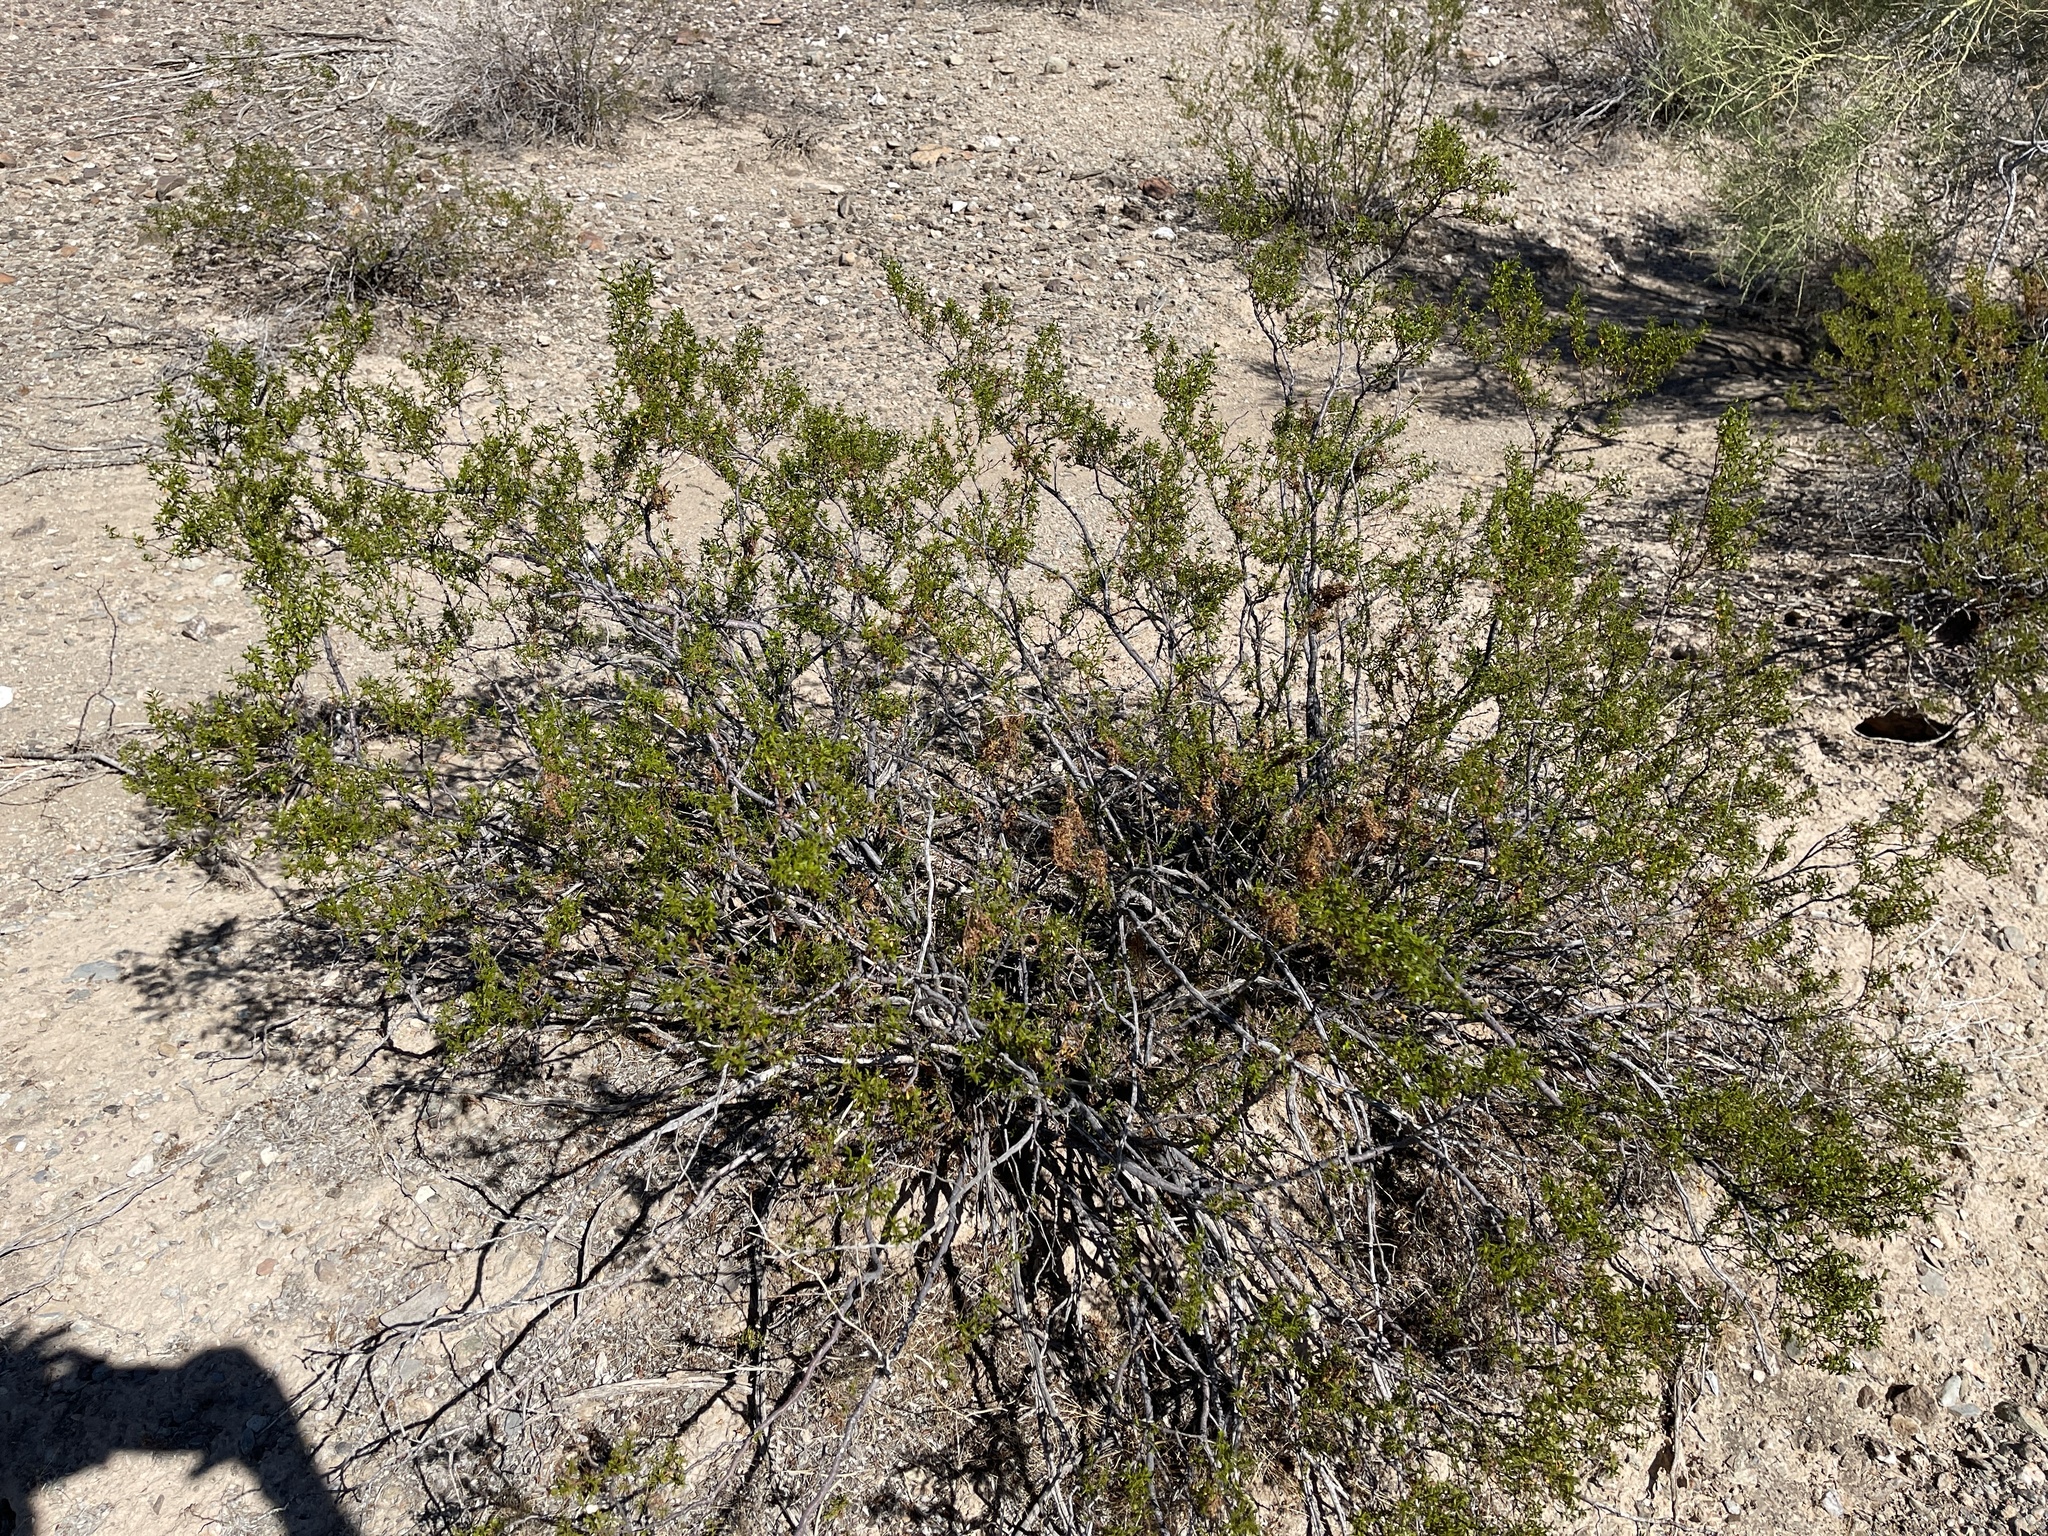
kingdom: Plantae
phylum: Tracheophyta
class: Magnoliopsida
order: Zygophyllales
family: Zygophyllaceae
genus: Larrea
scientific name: Larrea tridentata
